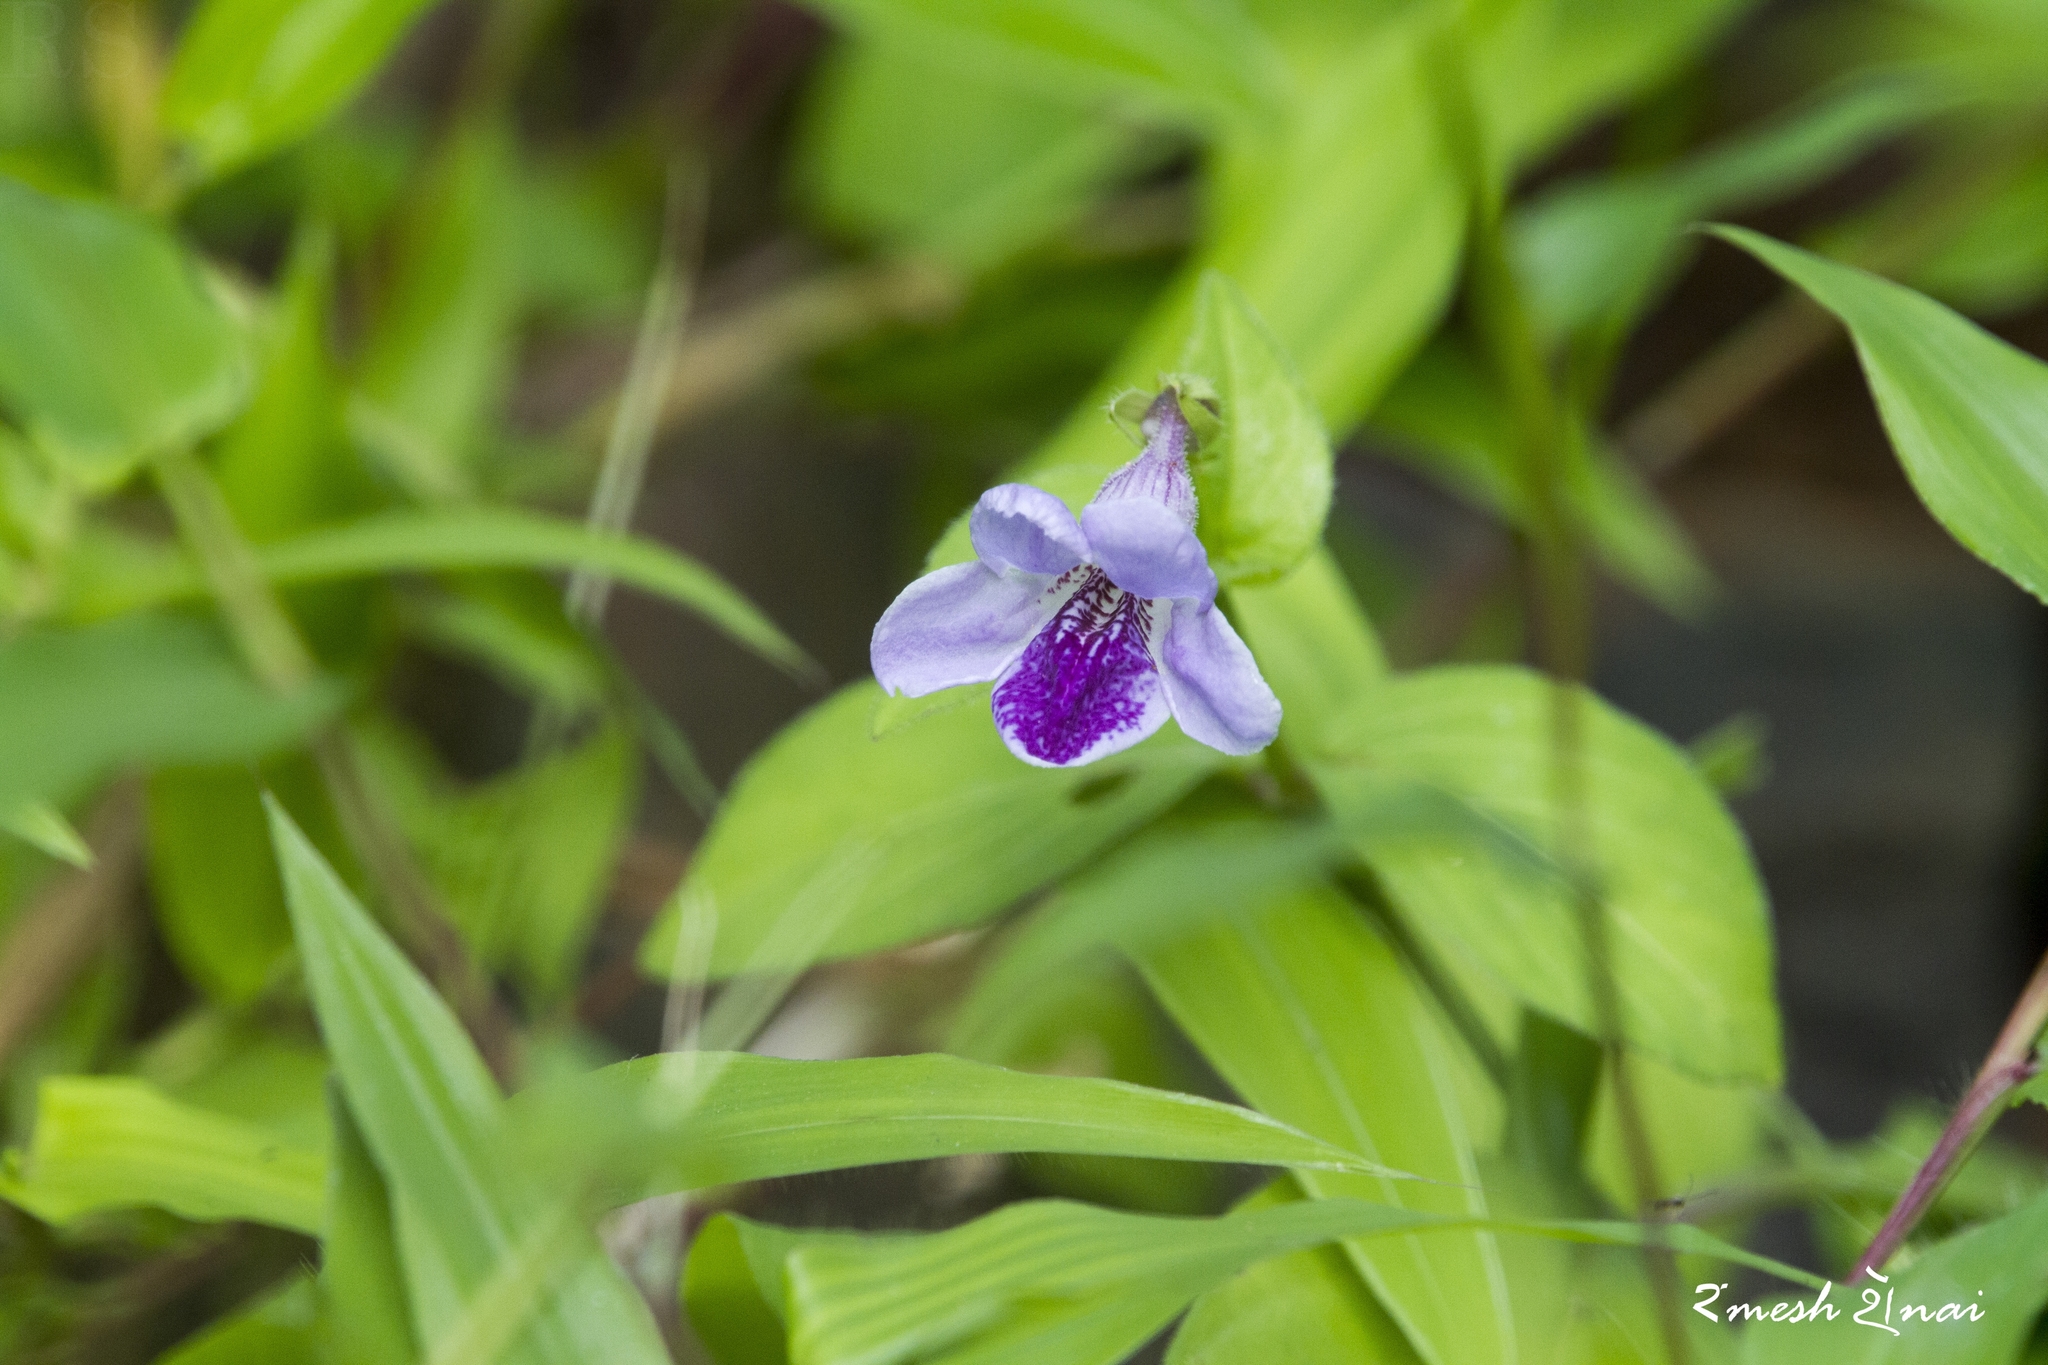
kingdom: Plantae
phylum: Tracheophyta
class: Magnoliopsida
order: Lamiales
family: Acanthaceae
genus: Asystasia
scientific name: Asystasia dalzelliana
